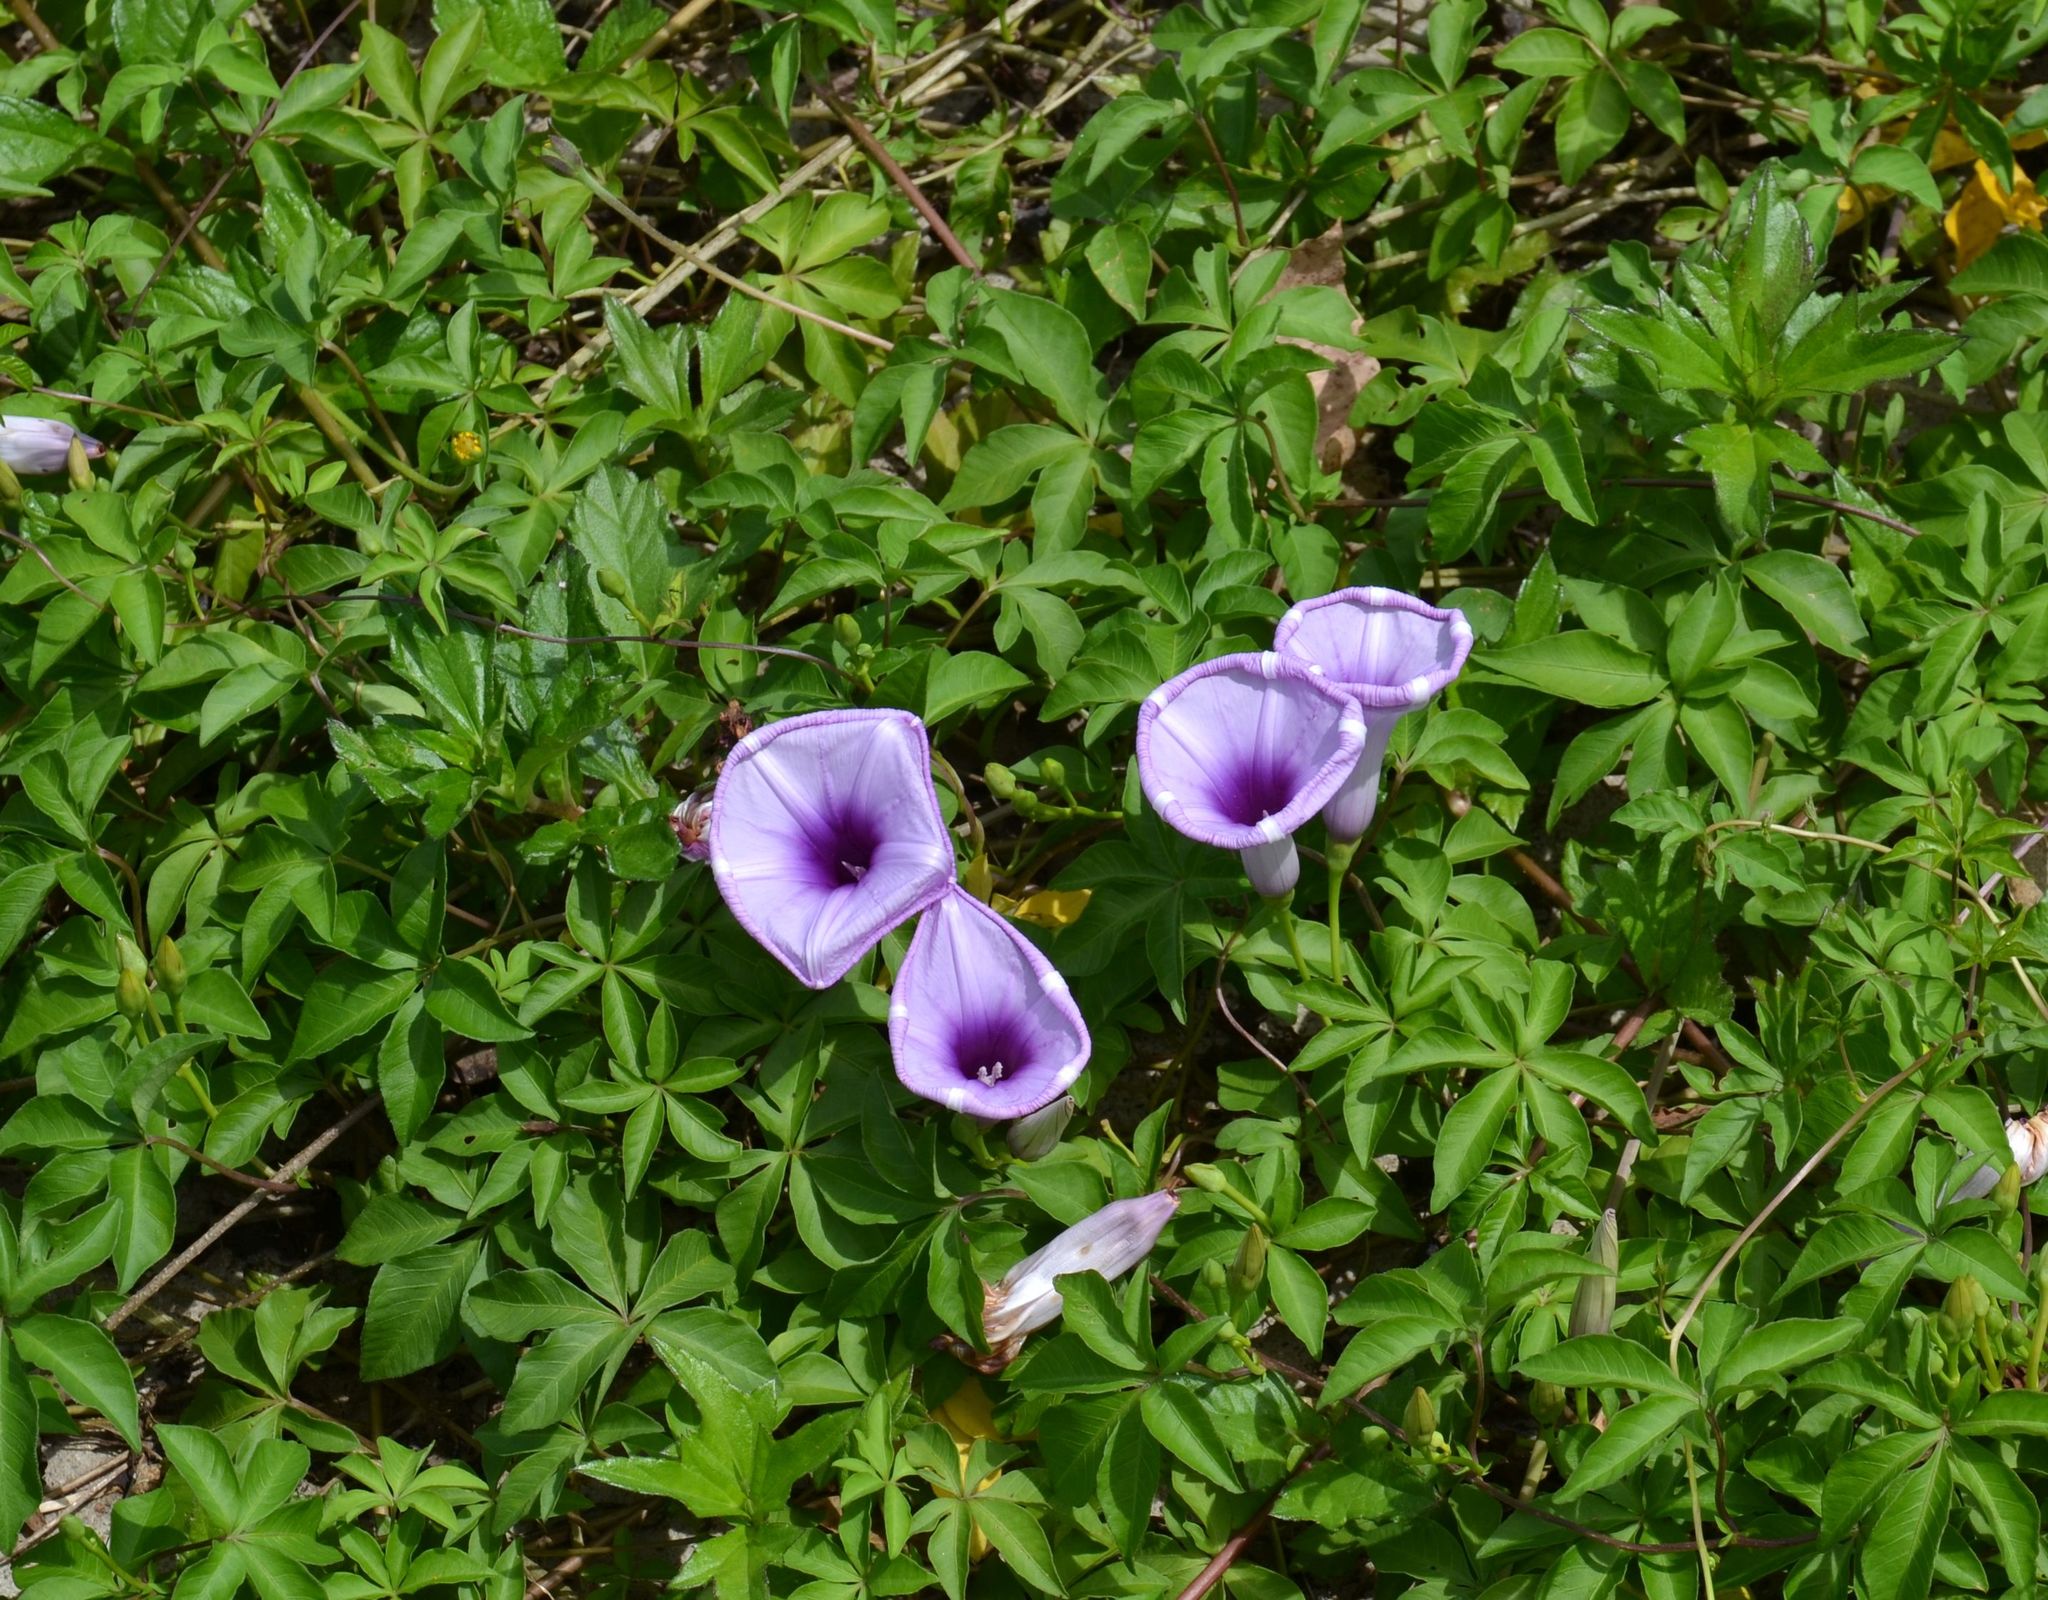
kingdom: Plantae
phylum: Tracheophyta
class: Magnoliopsida
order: Solanales
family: Convolvulaceae
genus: Ipomoea
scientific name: Ipomoea cairica
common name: Mile a minute vine
